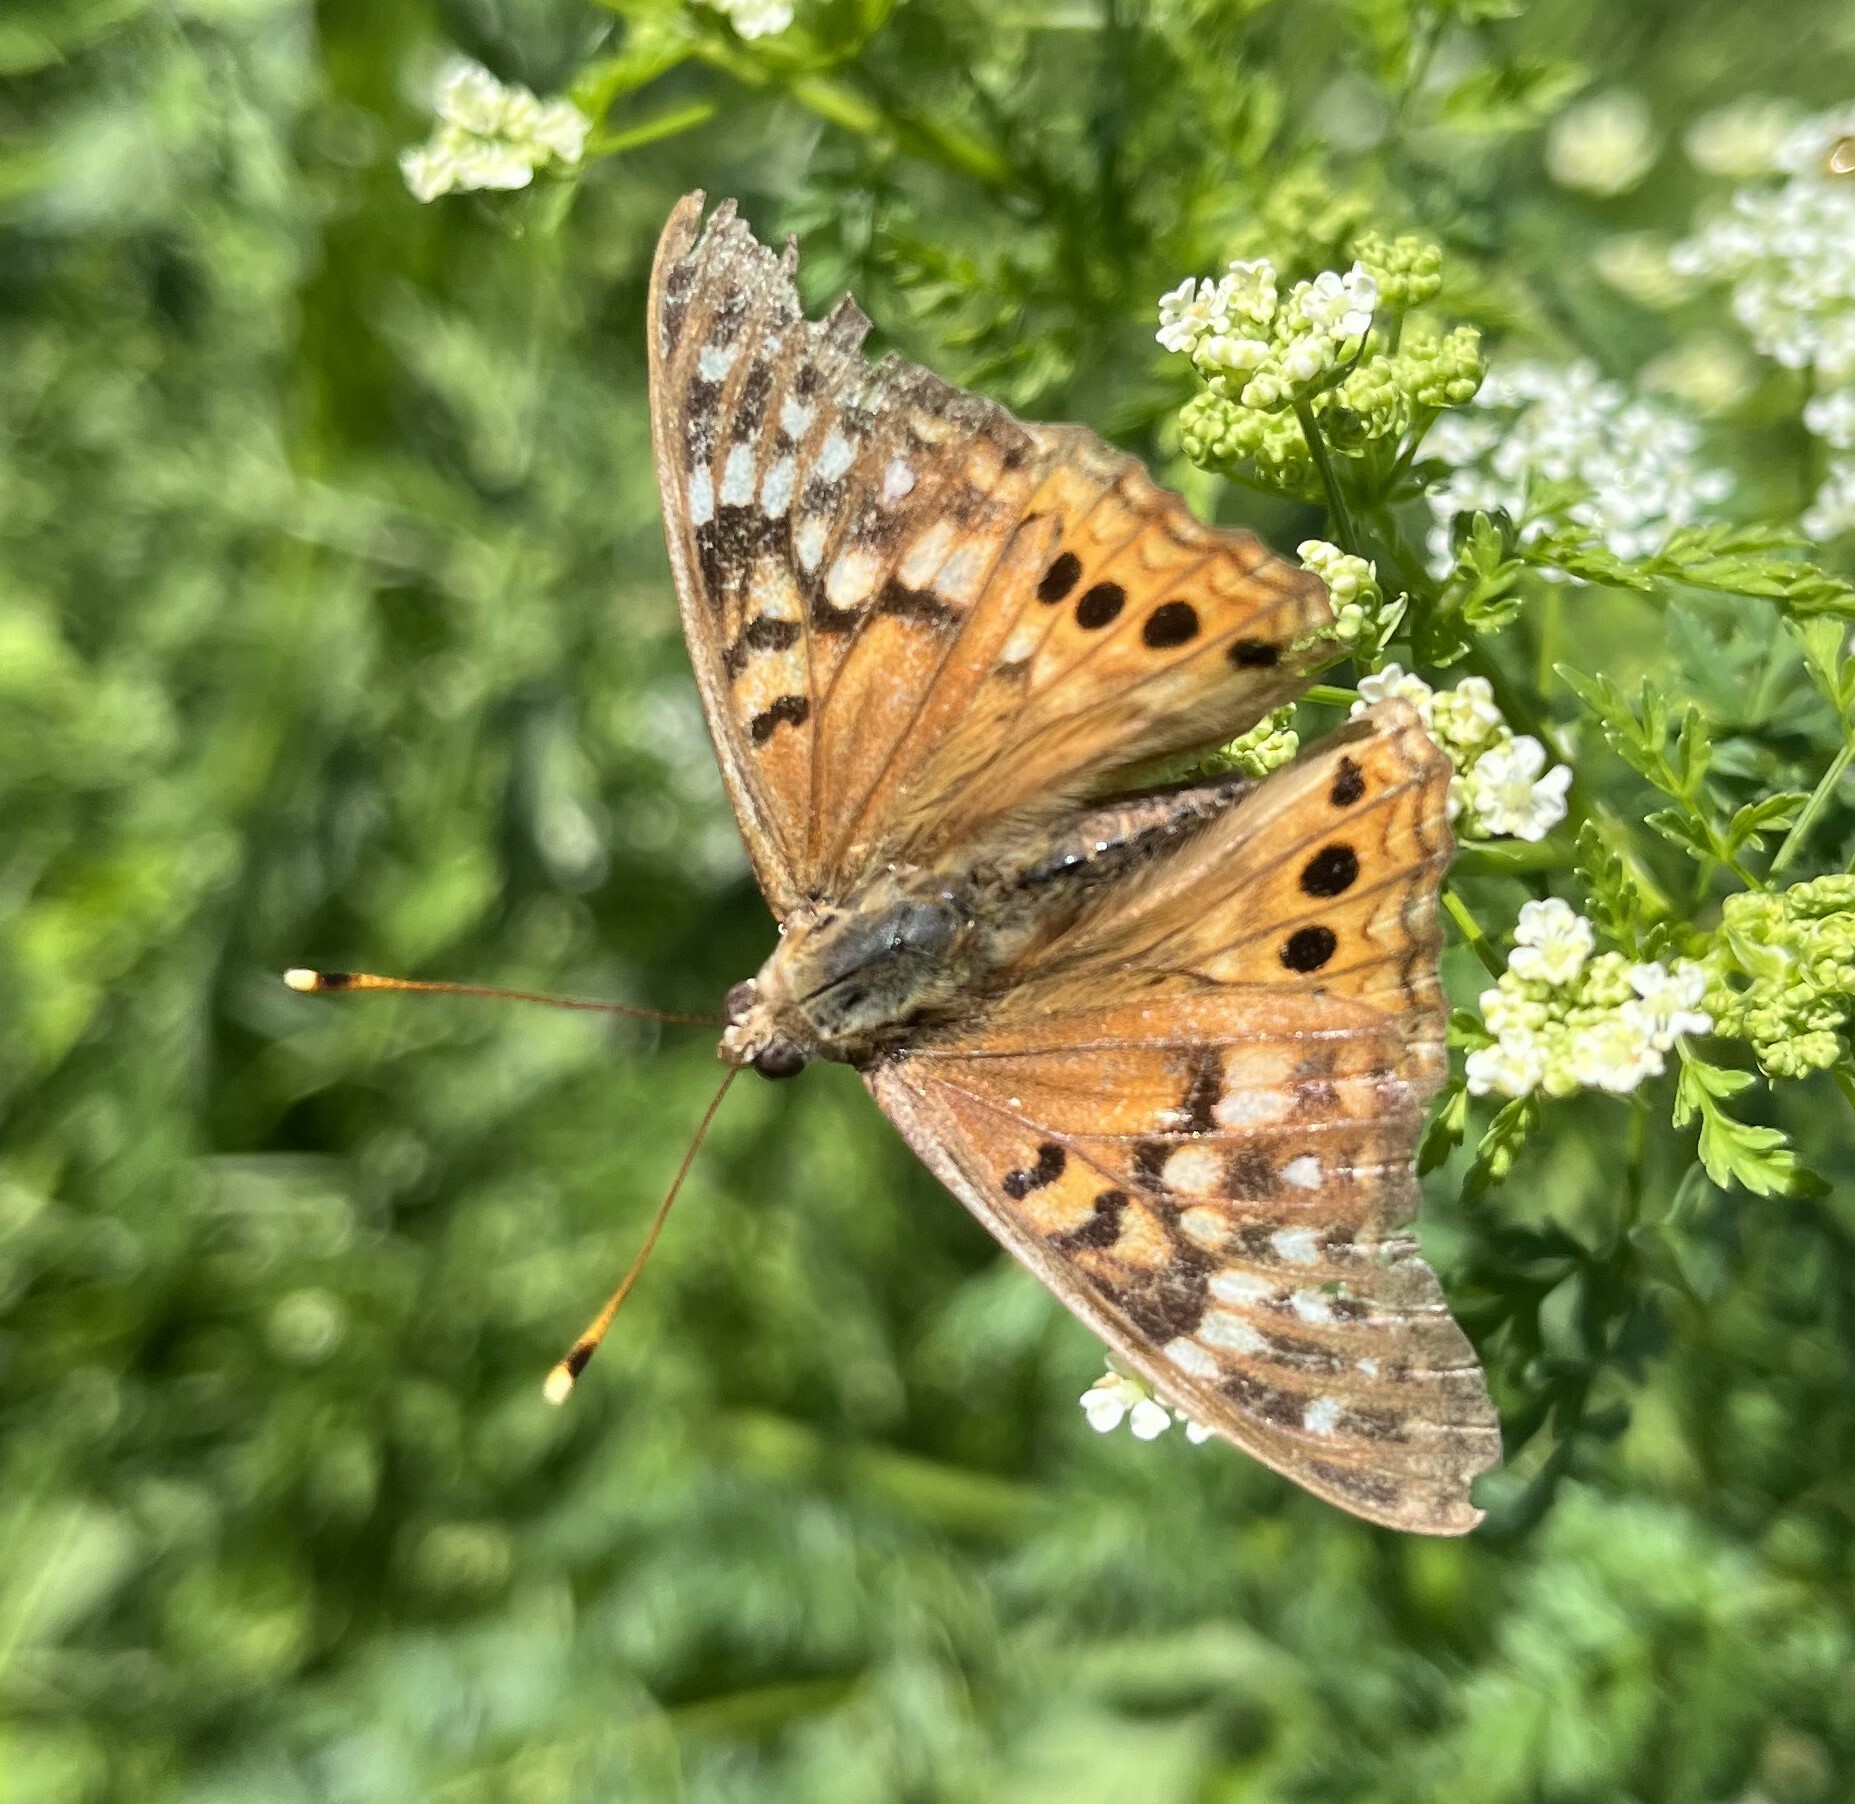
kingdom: Animalia
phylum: Arthropoda
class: Insecta
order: Lepidoptera
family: Nymphalidae
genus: Asterocampa
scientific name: Asterocampa clyton
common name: Tawny emperor
